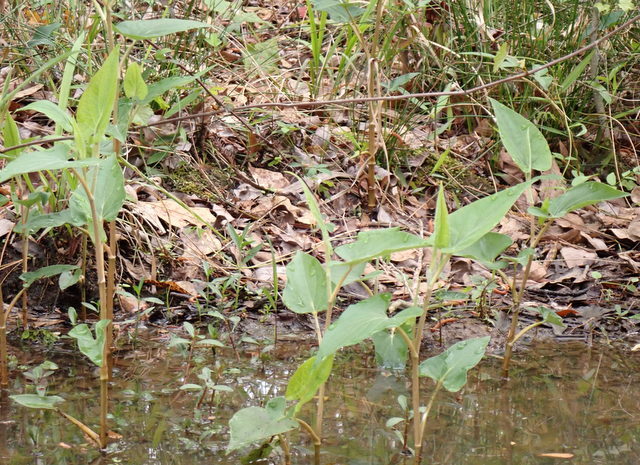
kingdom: Plantae
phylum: Tracheophyta
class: Magnoliopsida
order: Piperales
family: Saururaceae
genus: Saururus
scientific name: Saururus cernuus
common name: Lizard's-tail
